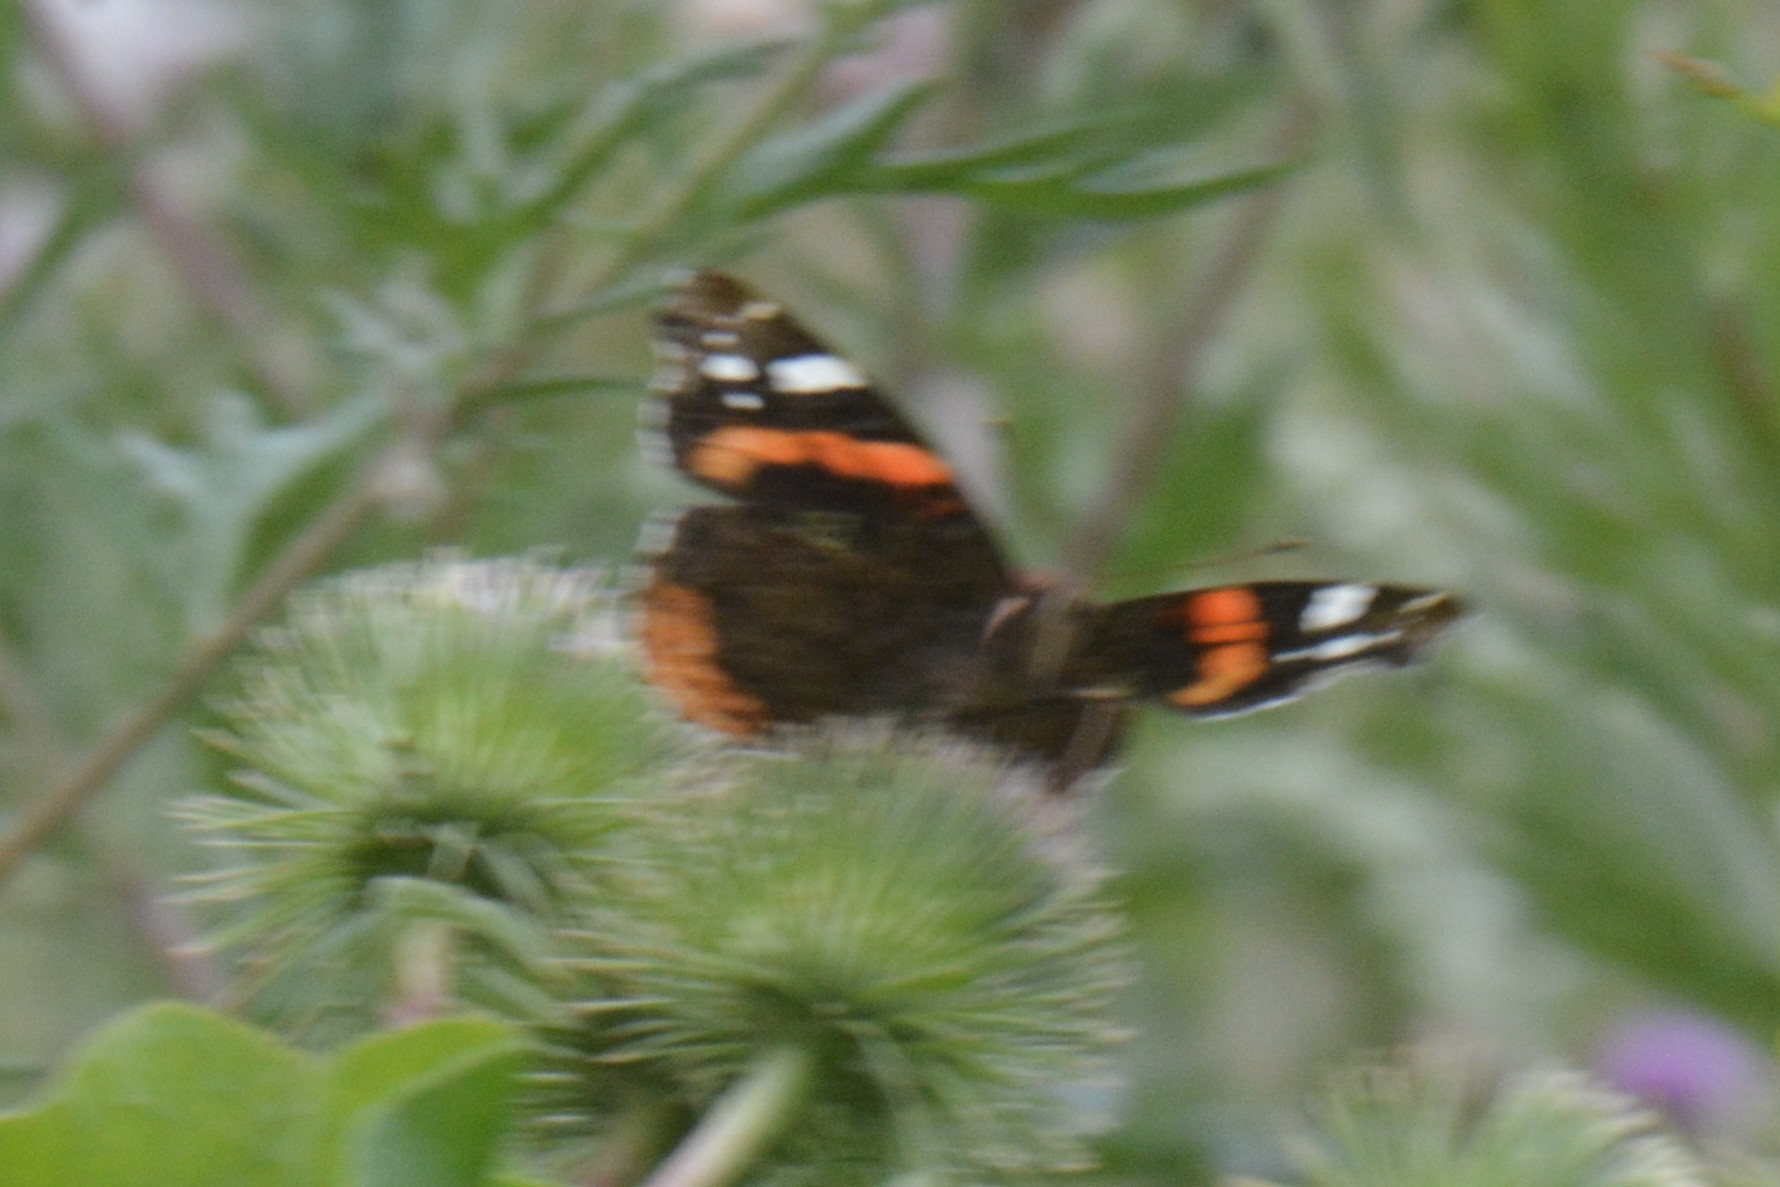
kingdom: Animalia
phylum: Arthropoda
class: Insecta
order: Lepidoptera
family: Nymphalidae
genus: Vanessa
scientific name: Vanessa atalanta
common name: Red admiral
